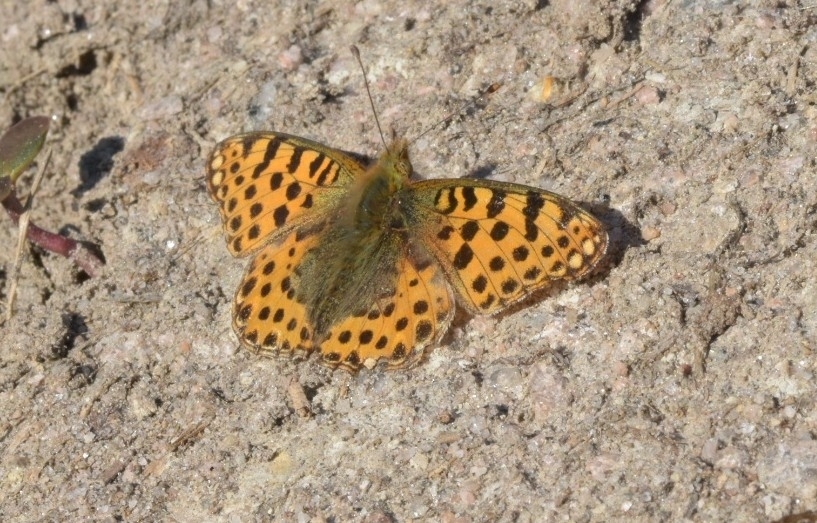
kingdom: Animalia
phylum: Arthropoda
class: Insecta
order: Lepidoptera
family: Nymphalidae
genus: Issoria
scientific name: Issoria lathonia
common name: Queen of spain fritillary
